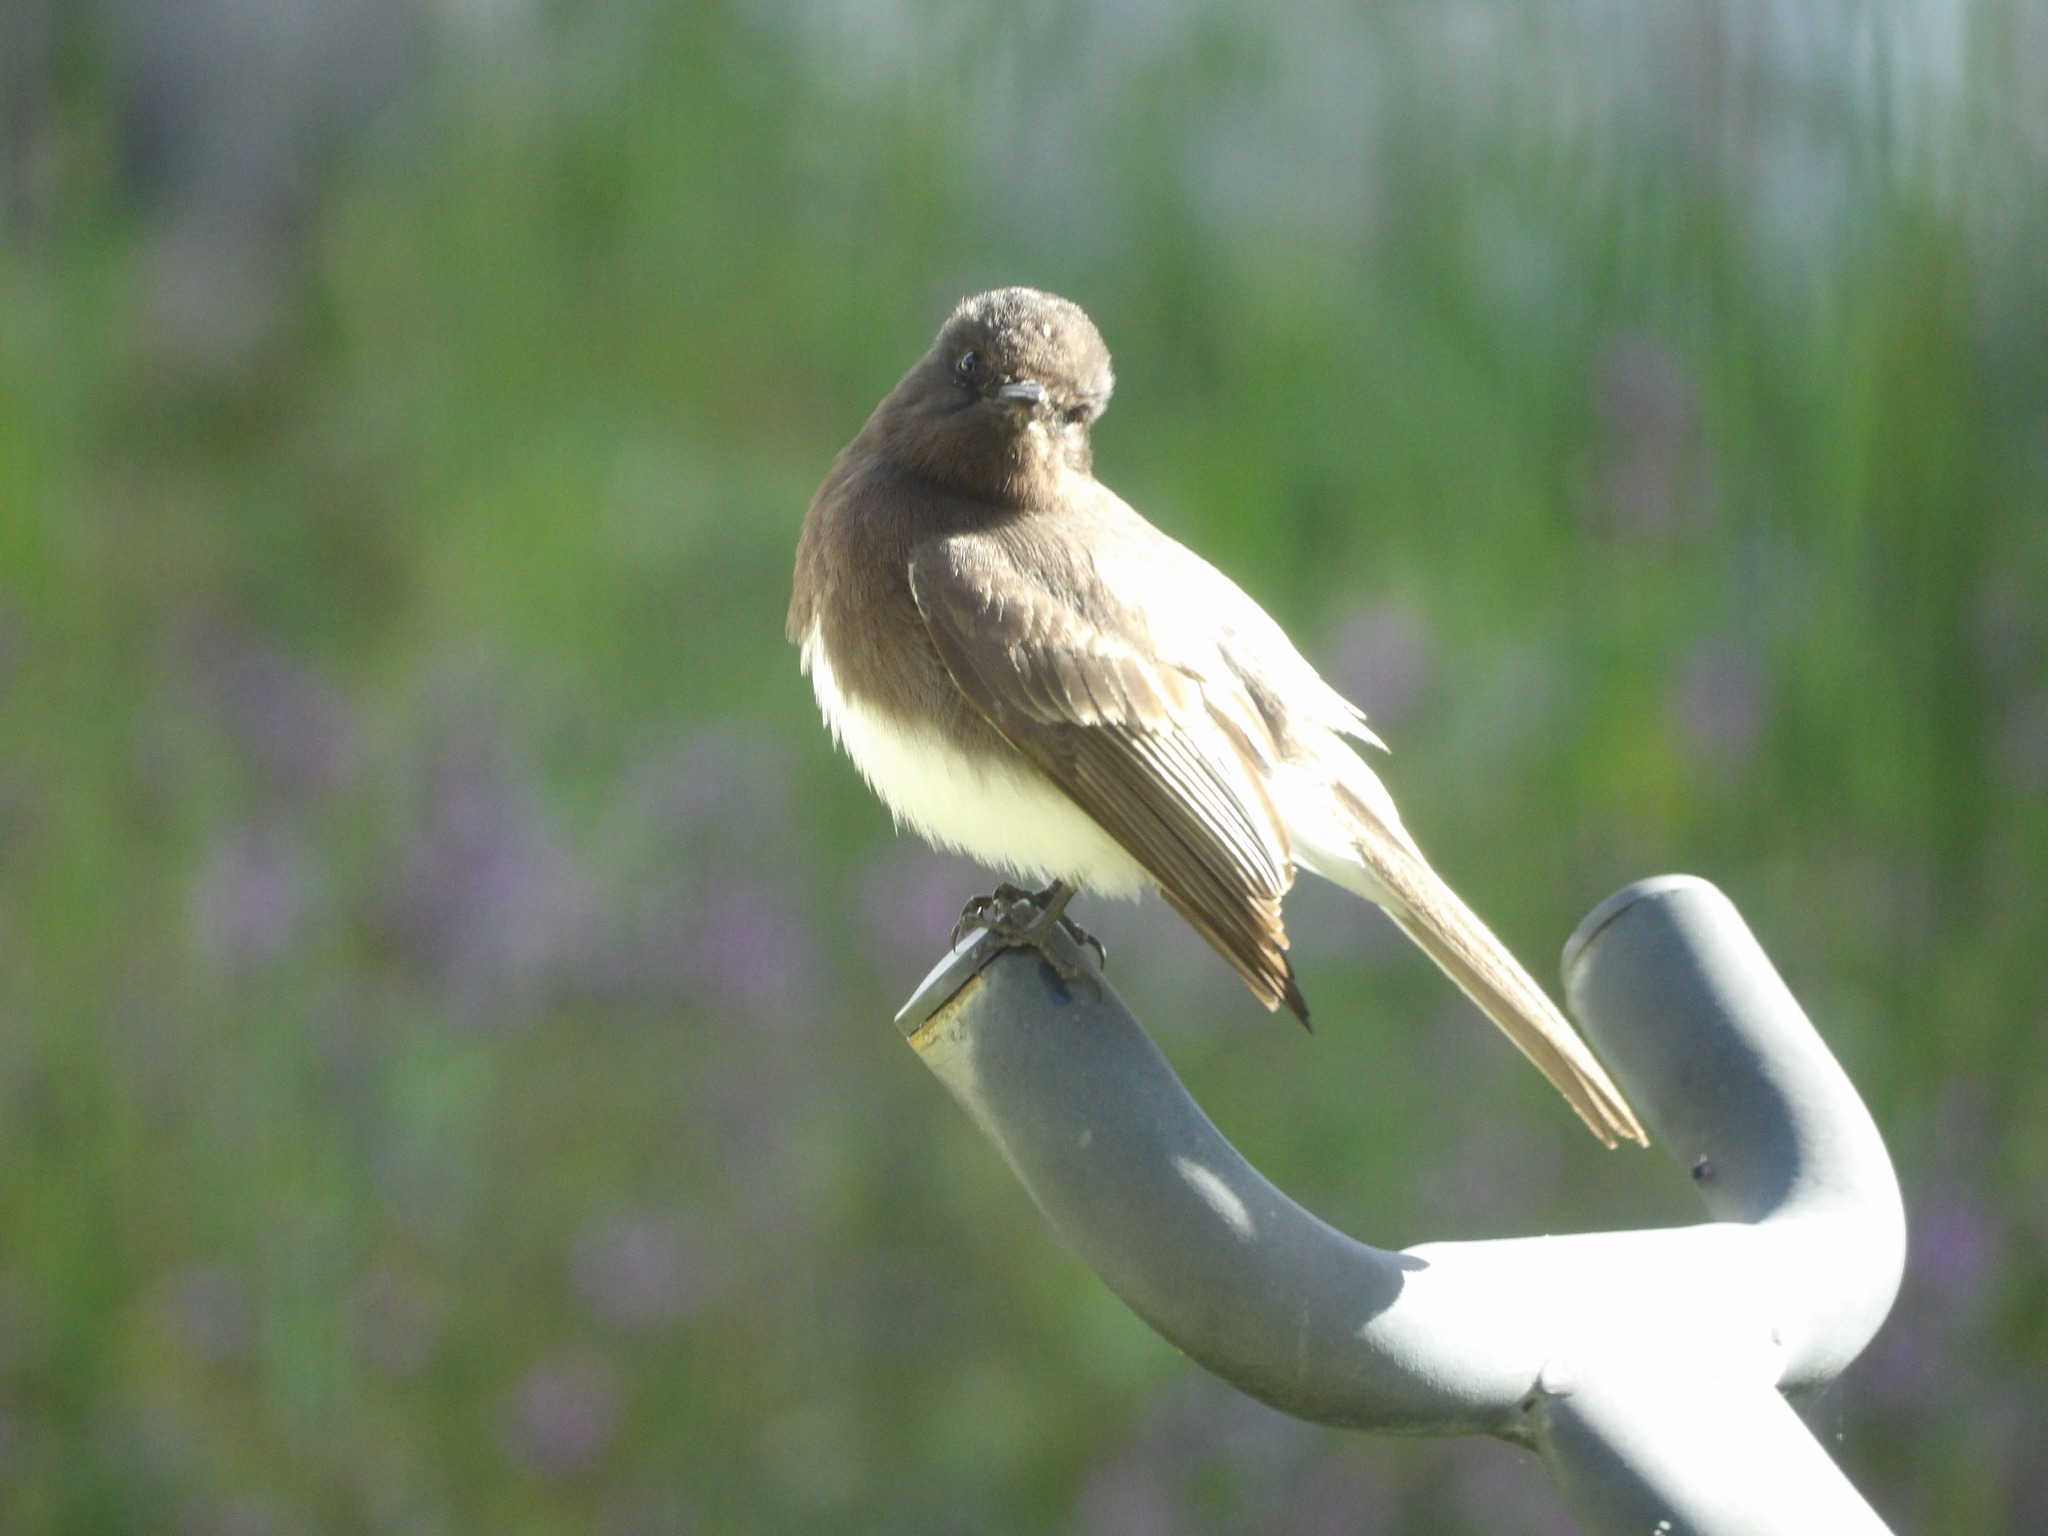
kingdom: Animalia
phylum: Chordata
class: Aves
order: Passeriformes
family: Tyrannidae
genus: Sayornis
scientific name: Sayornis nigricans
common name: Black phoebe
